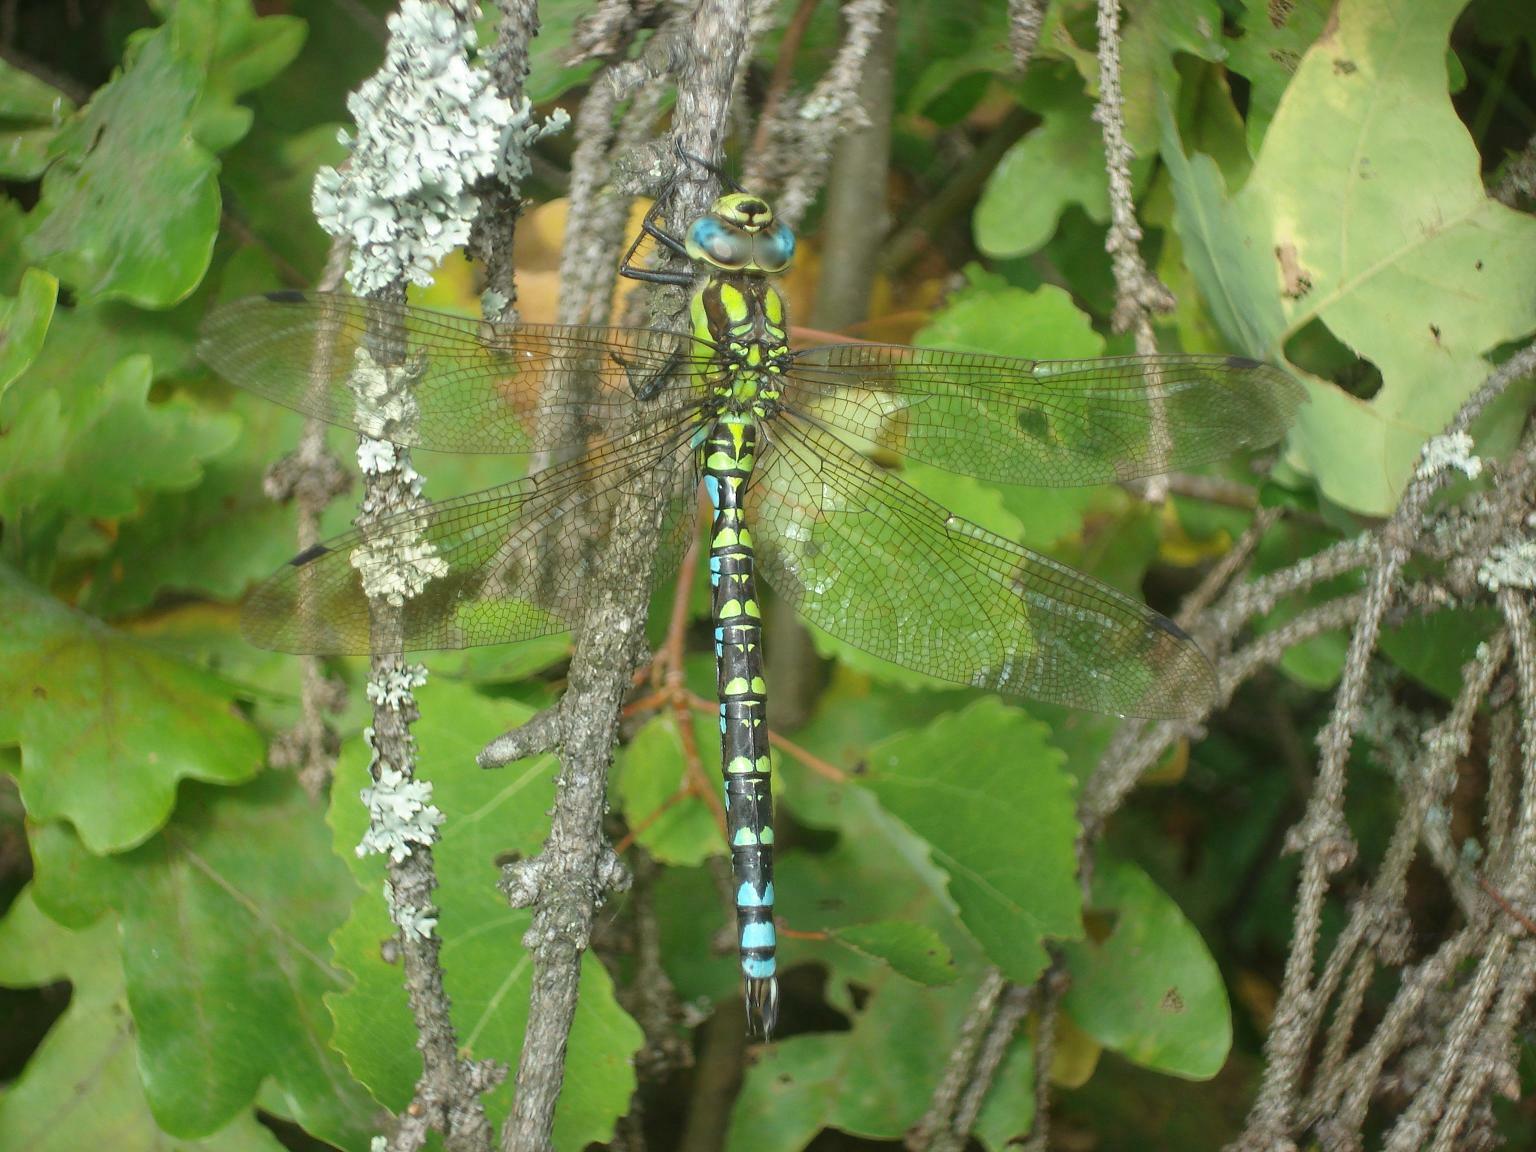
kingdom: Animalia
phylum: Arthropoda
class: Insecta
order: Odonata
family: Aeshnidae
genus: Aeshna
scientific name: Aeshna cyanea
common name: Southern hawker
